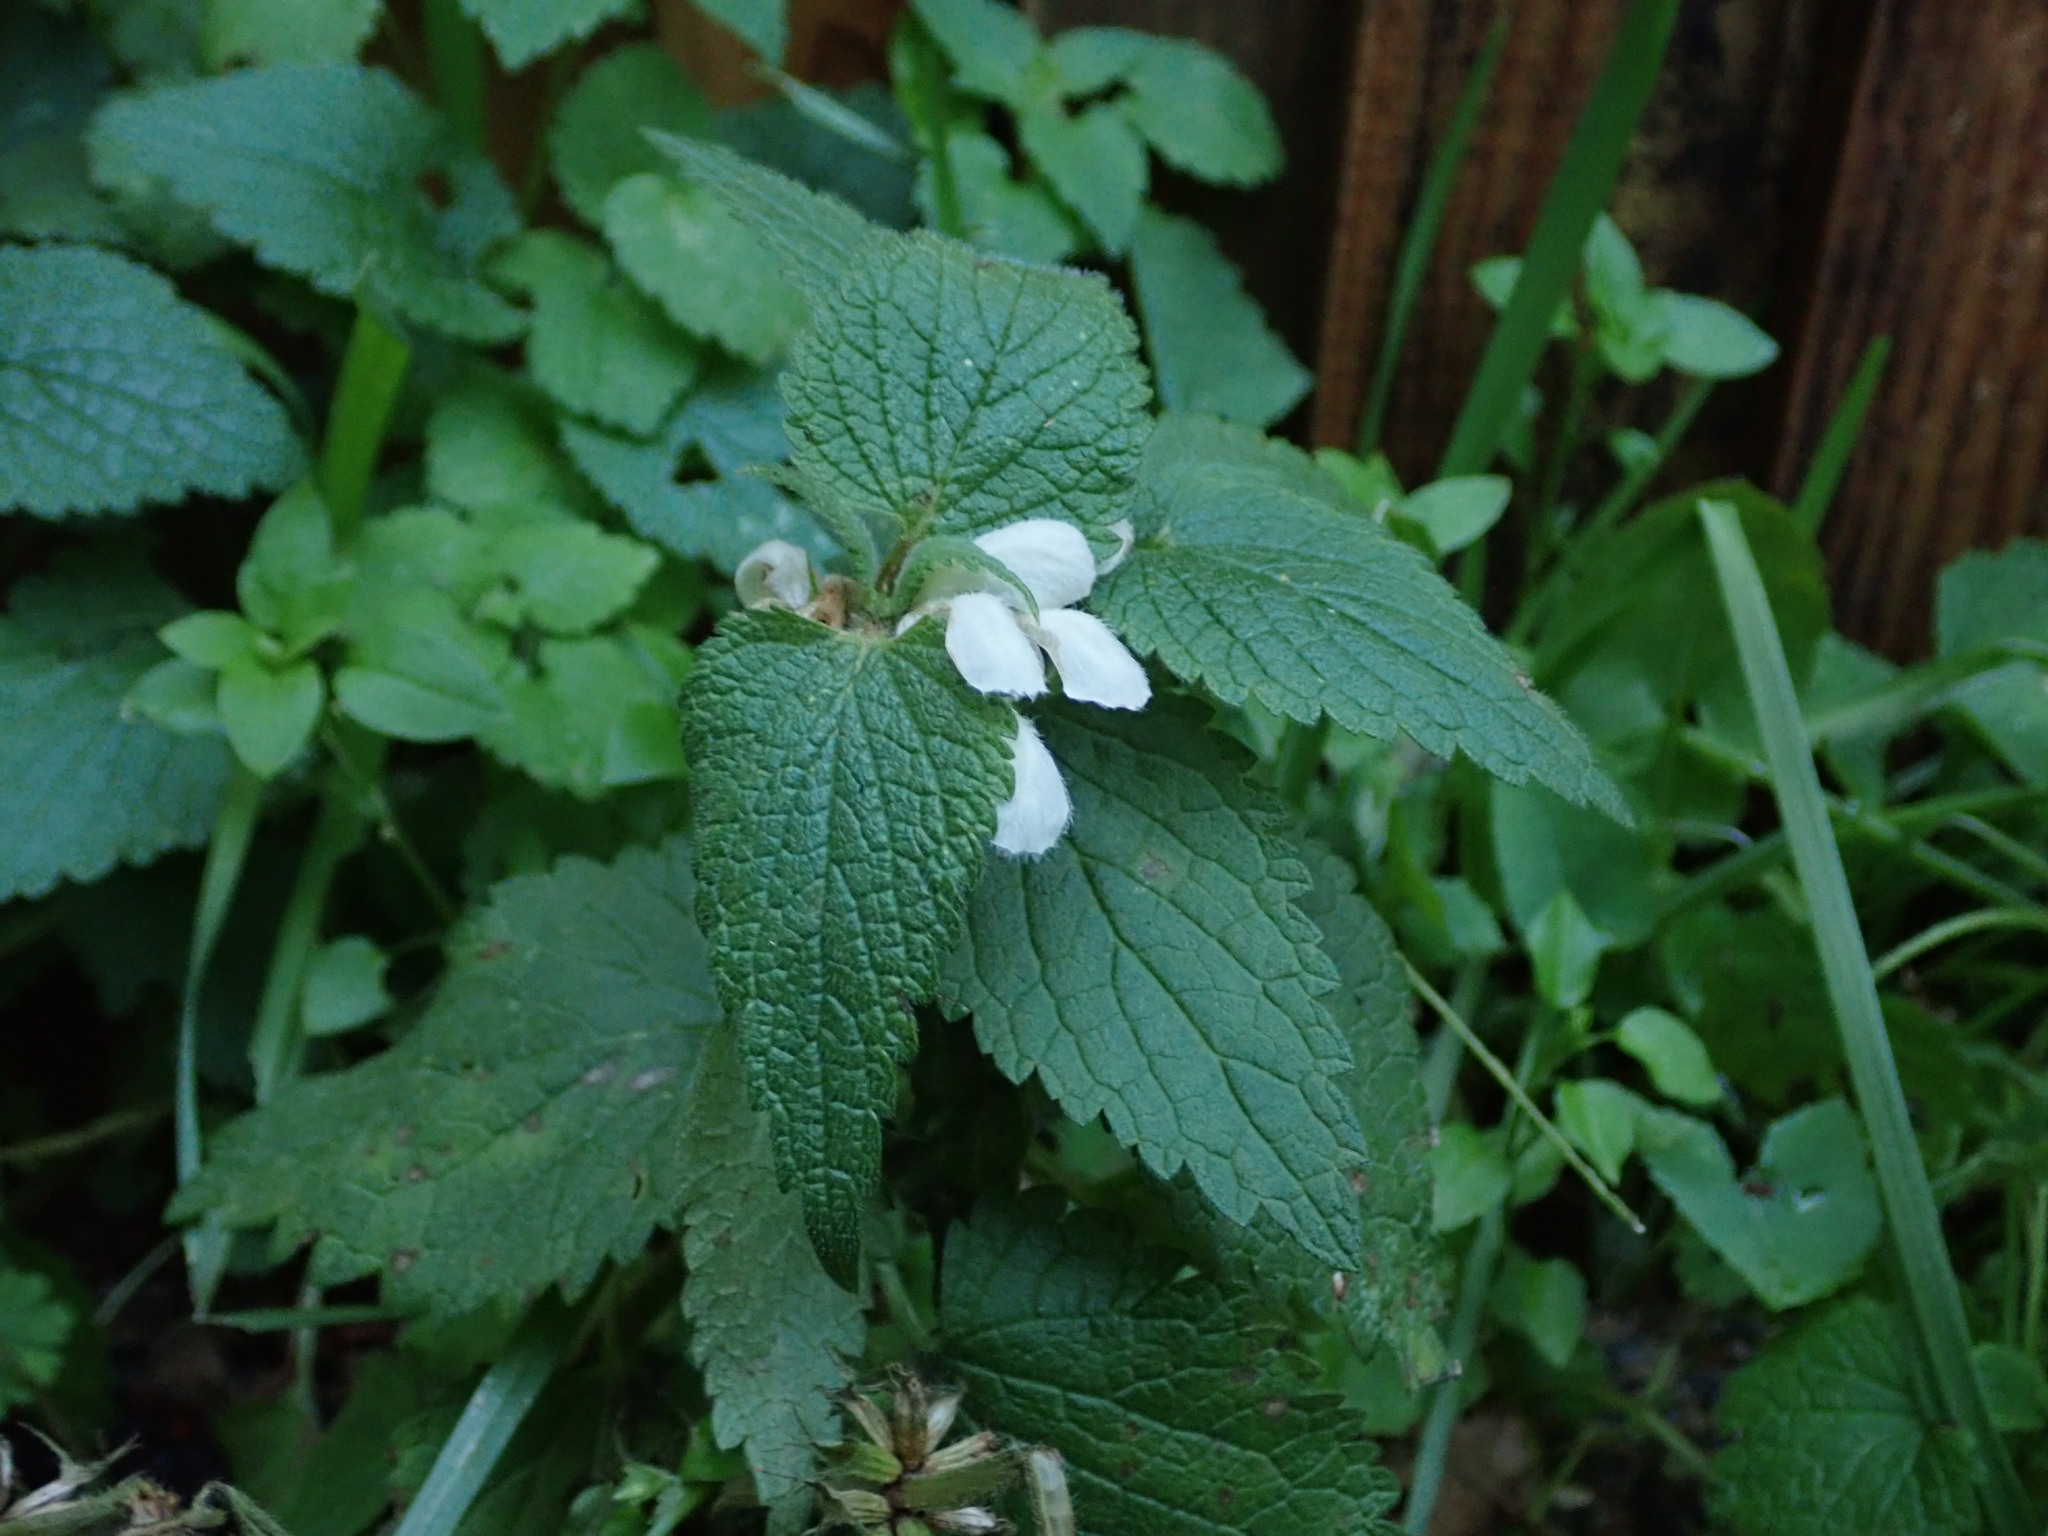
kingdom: Plantae
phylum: Tracheophyta
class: Magnoliopsida
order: Lamiales
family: Lamiaceae
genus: Lamium
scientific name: Lamium album
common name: White dead-nettle
